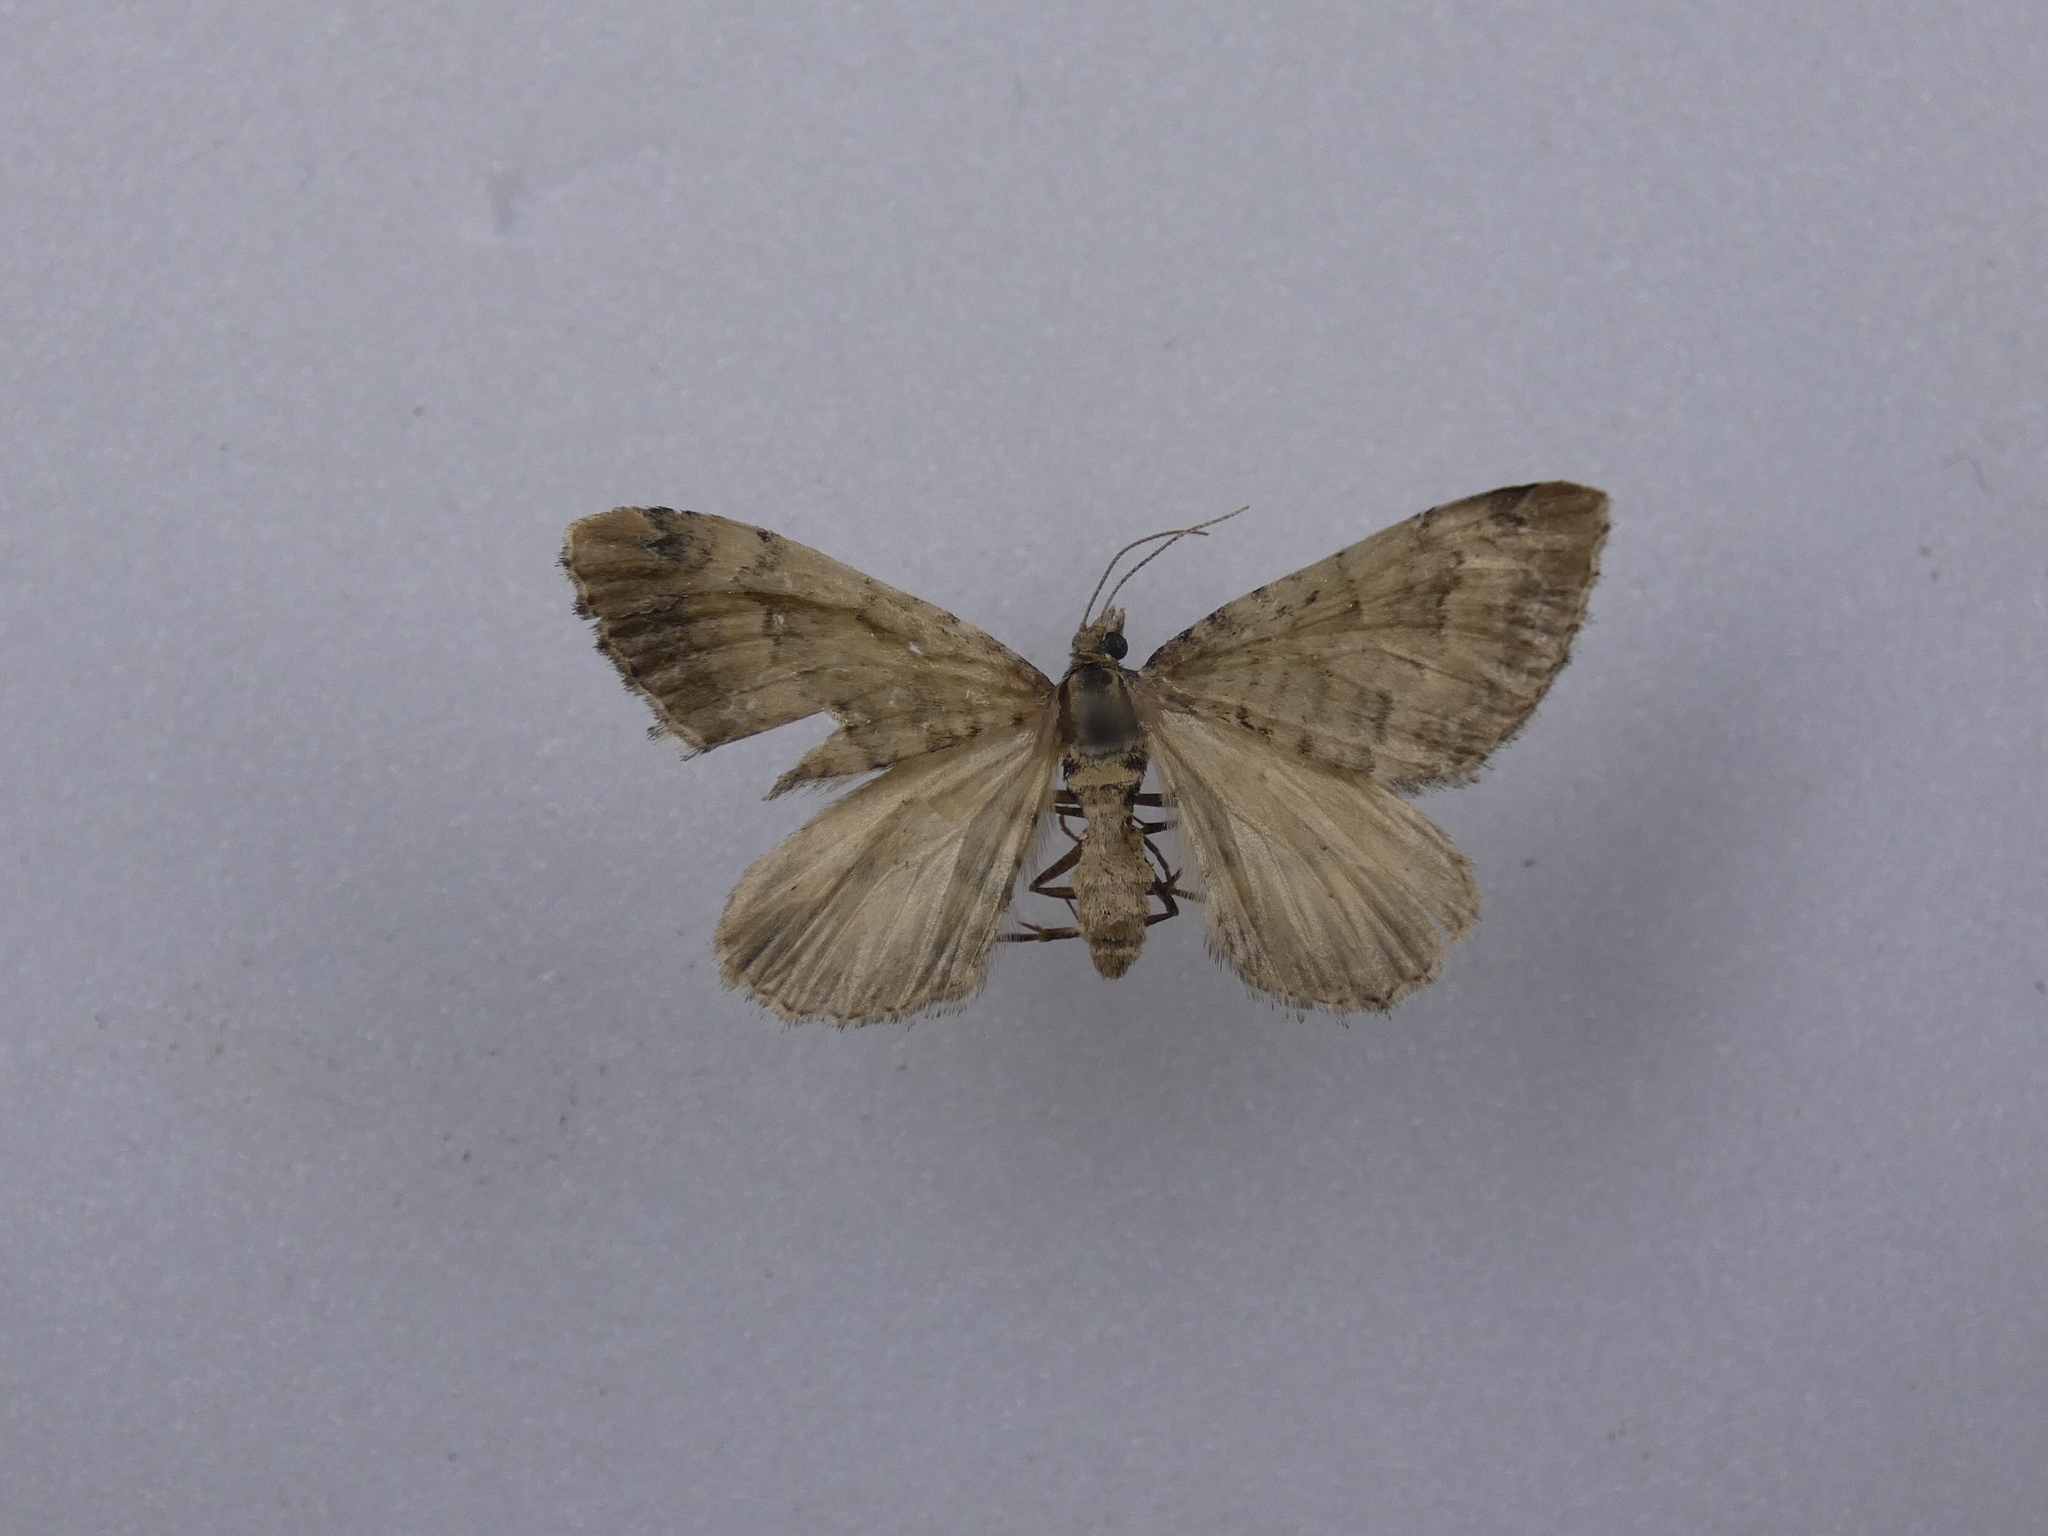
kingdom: Animalia
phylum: Arthropoda
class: Insecta
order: Lepidoptera
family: Geometridae
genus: Asaphodes
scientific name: Asaphodes aegrota
